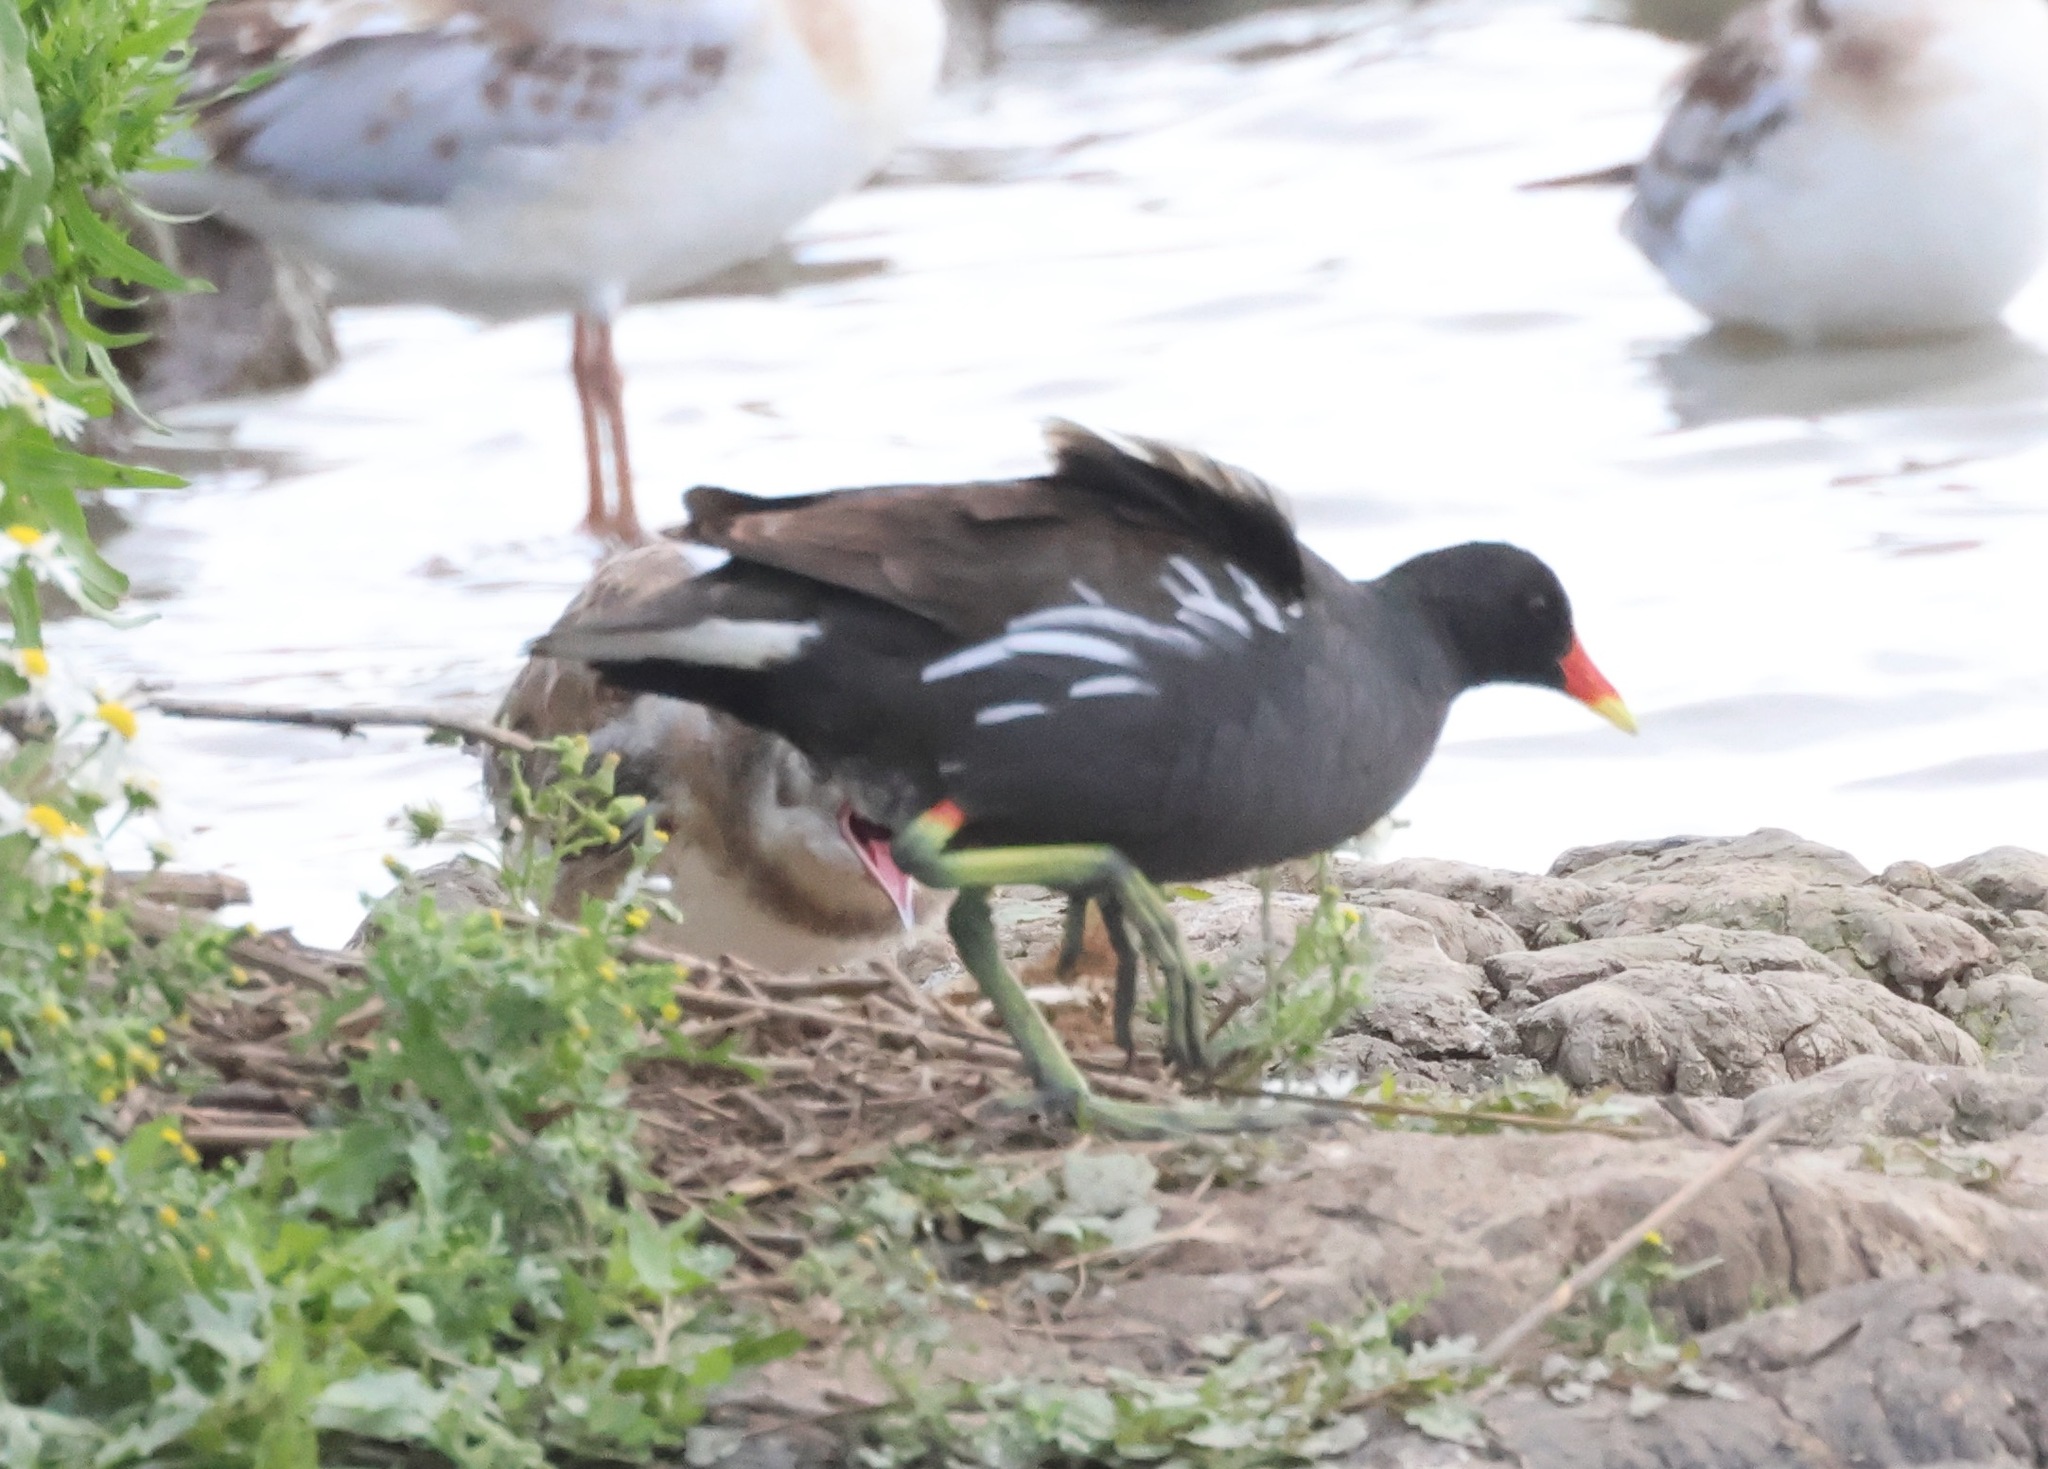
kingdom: Animalia
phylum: Chordata
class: Aves
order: Gruiformes
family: Rallidae
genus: Gallinula
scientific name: Gallinula chloropus
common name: Common moorhen
